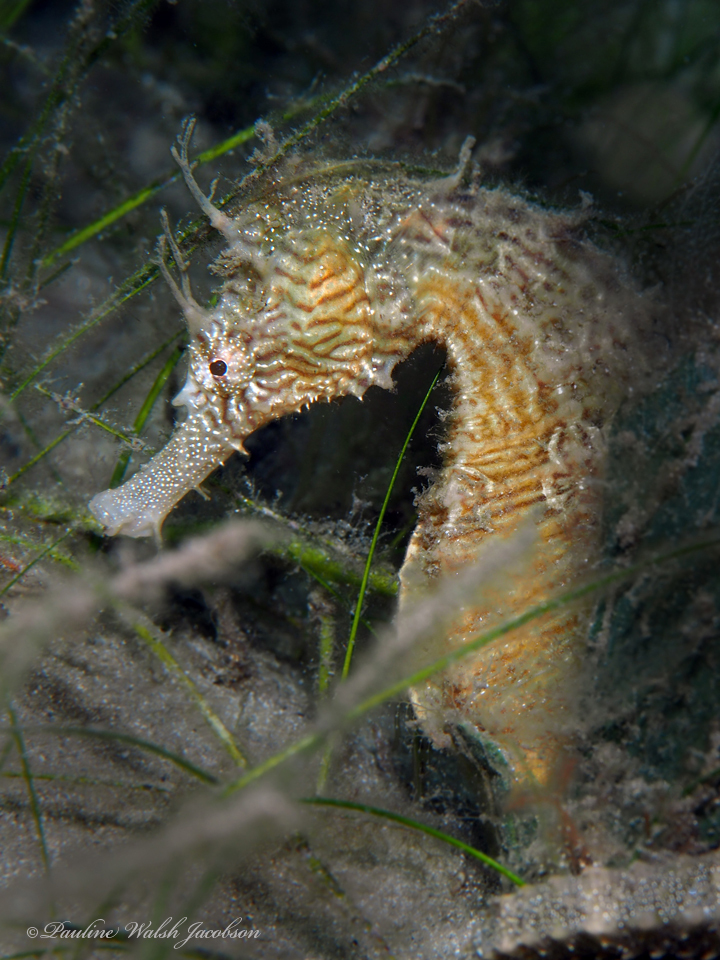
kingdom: Animalia
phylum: Chordata
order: Syngnathiformes
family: Syngnathidae
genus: Hippocampus
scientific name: Hippocampus erectus
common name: Lined seahorse
